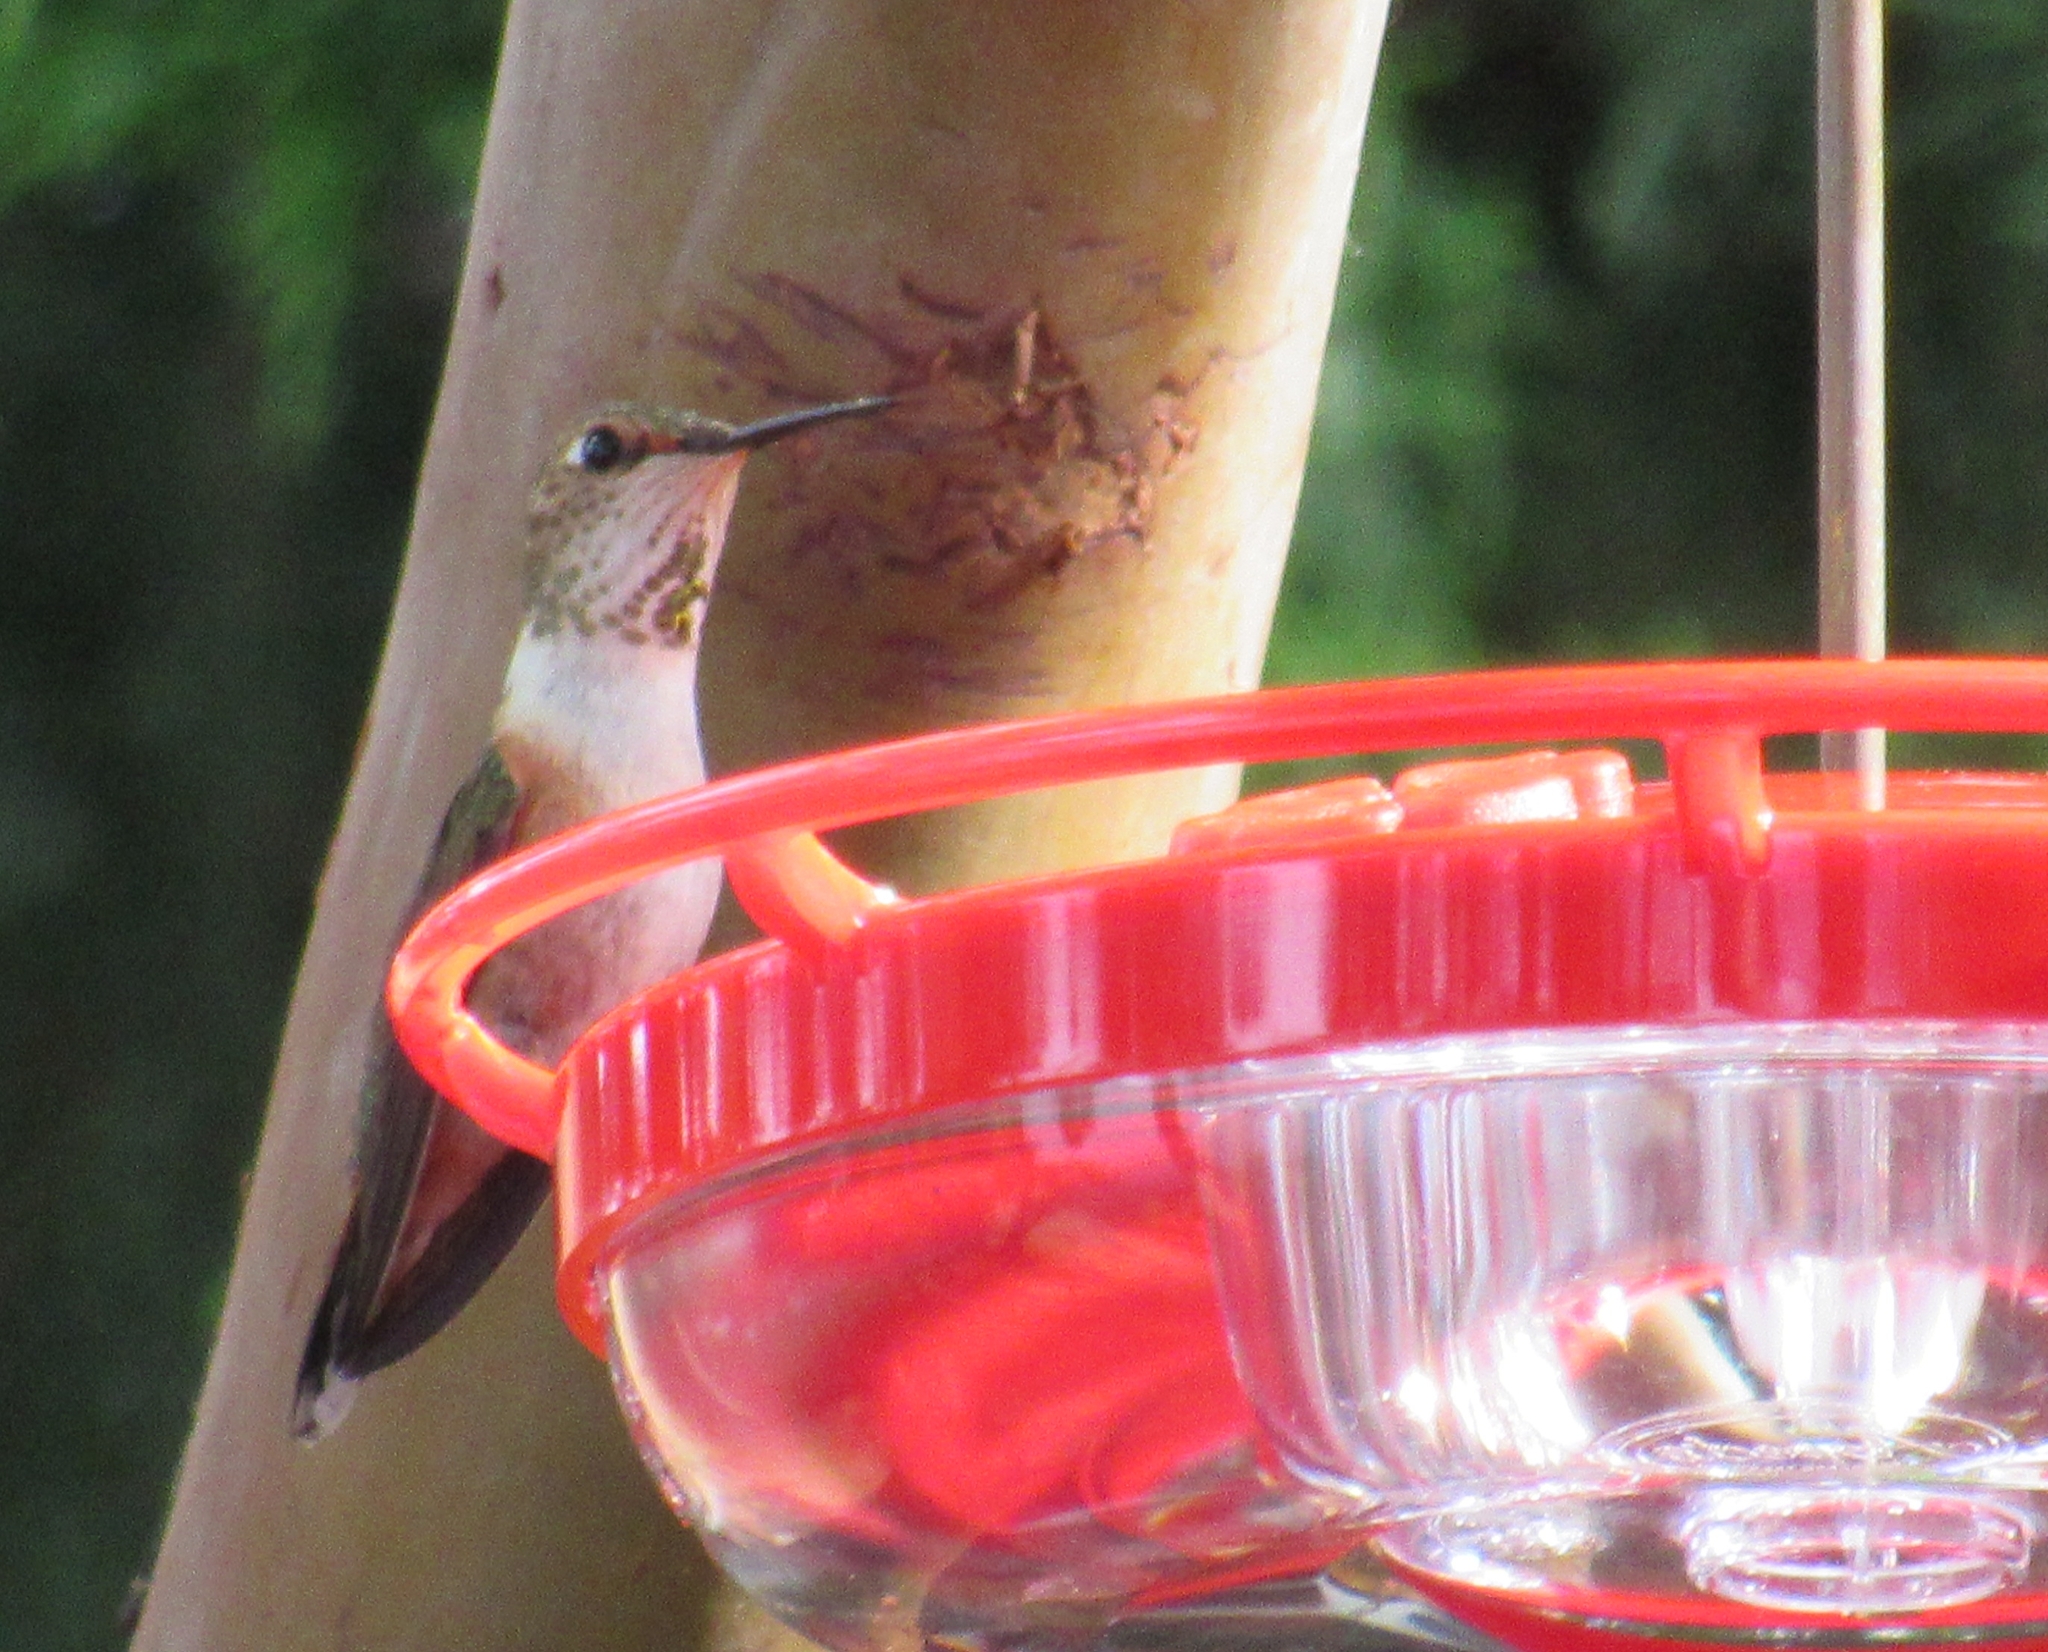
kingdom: Animalia
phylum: Chordata
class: Aves
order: Apodiformes
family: Trochilidae
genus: Selasphorus
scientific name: Selasphorus rufus
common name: Rufous hummingbird
